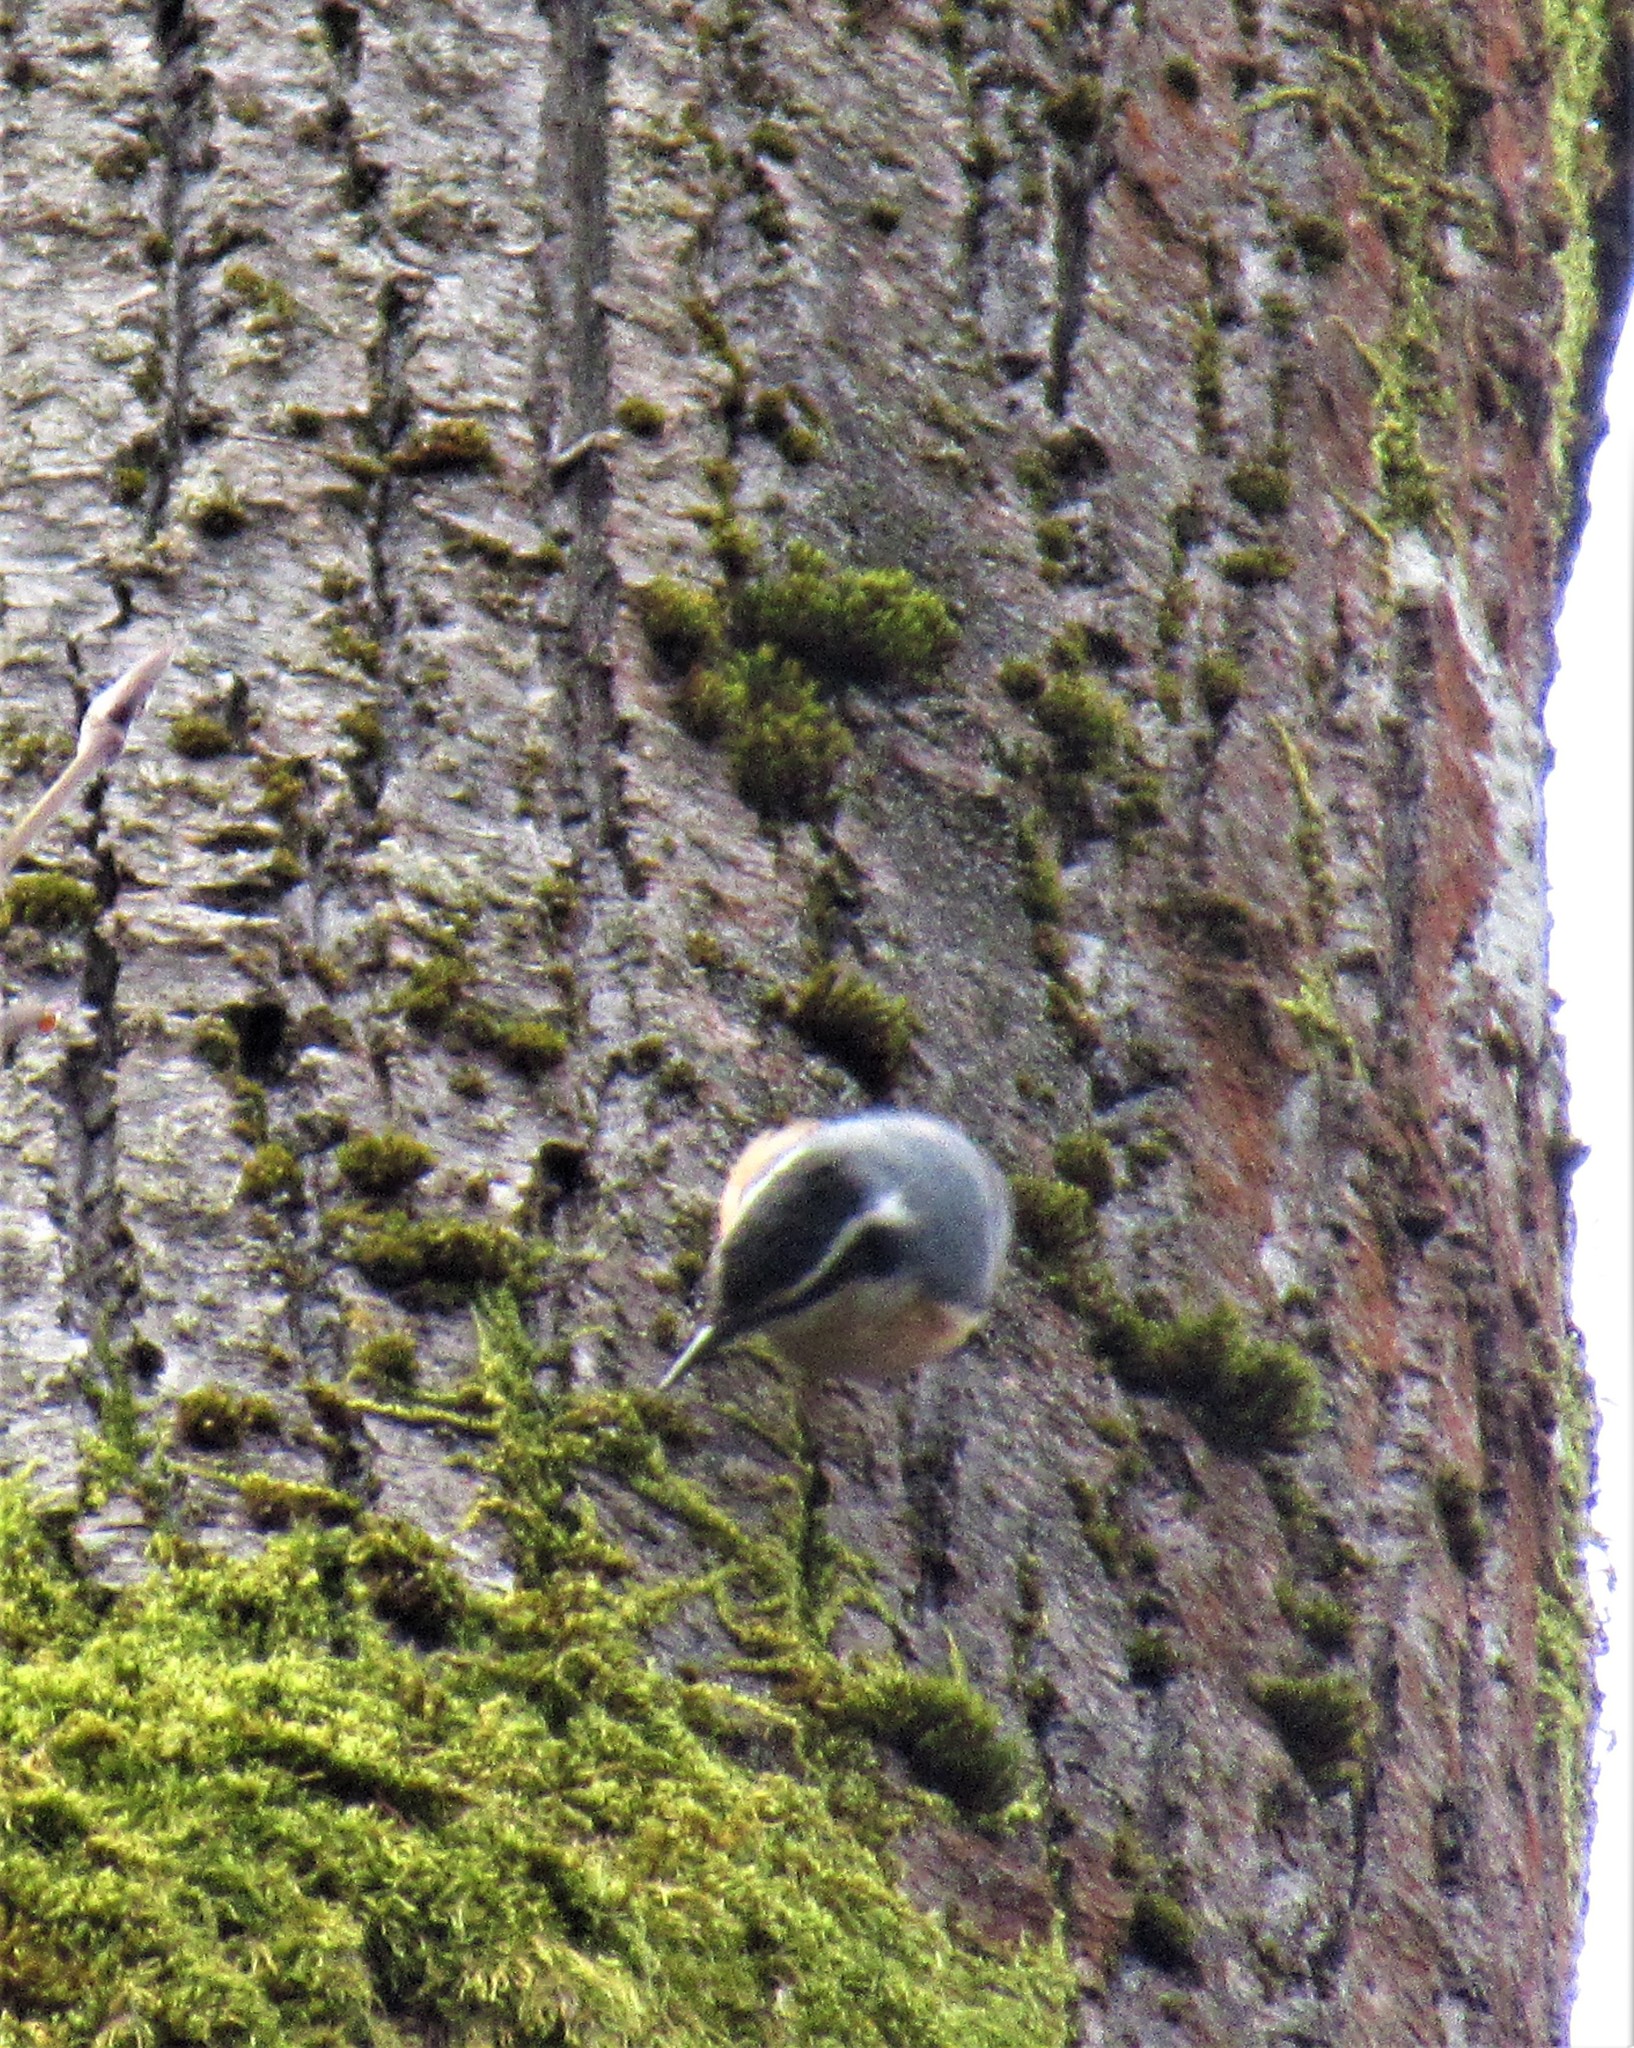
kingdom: Animalia
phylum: Chordata
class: Aves
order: Passeriformes
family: Sittidae
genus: Sitta
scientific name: Sitta canadensis
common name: Red-breasted nuthatch
